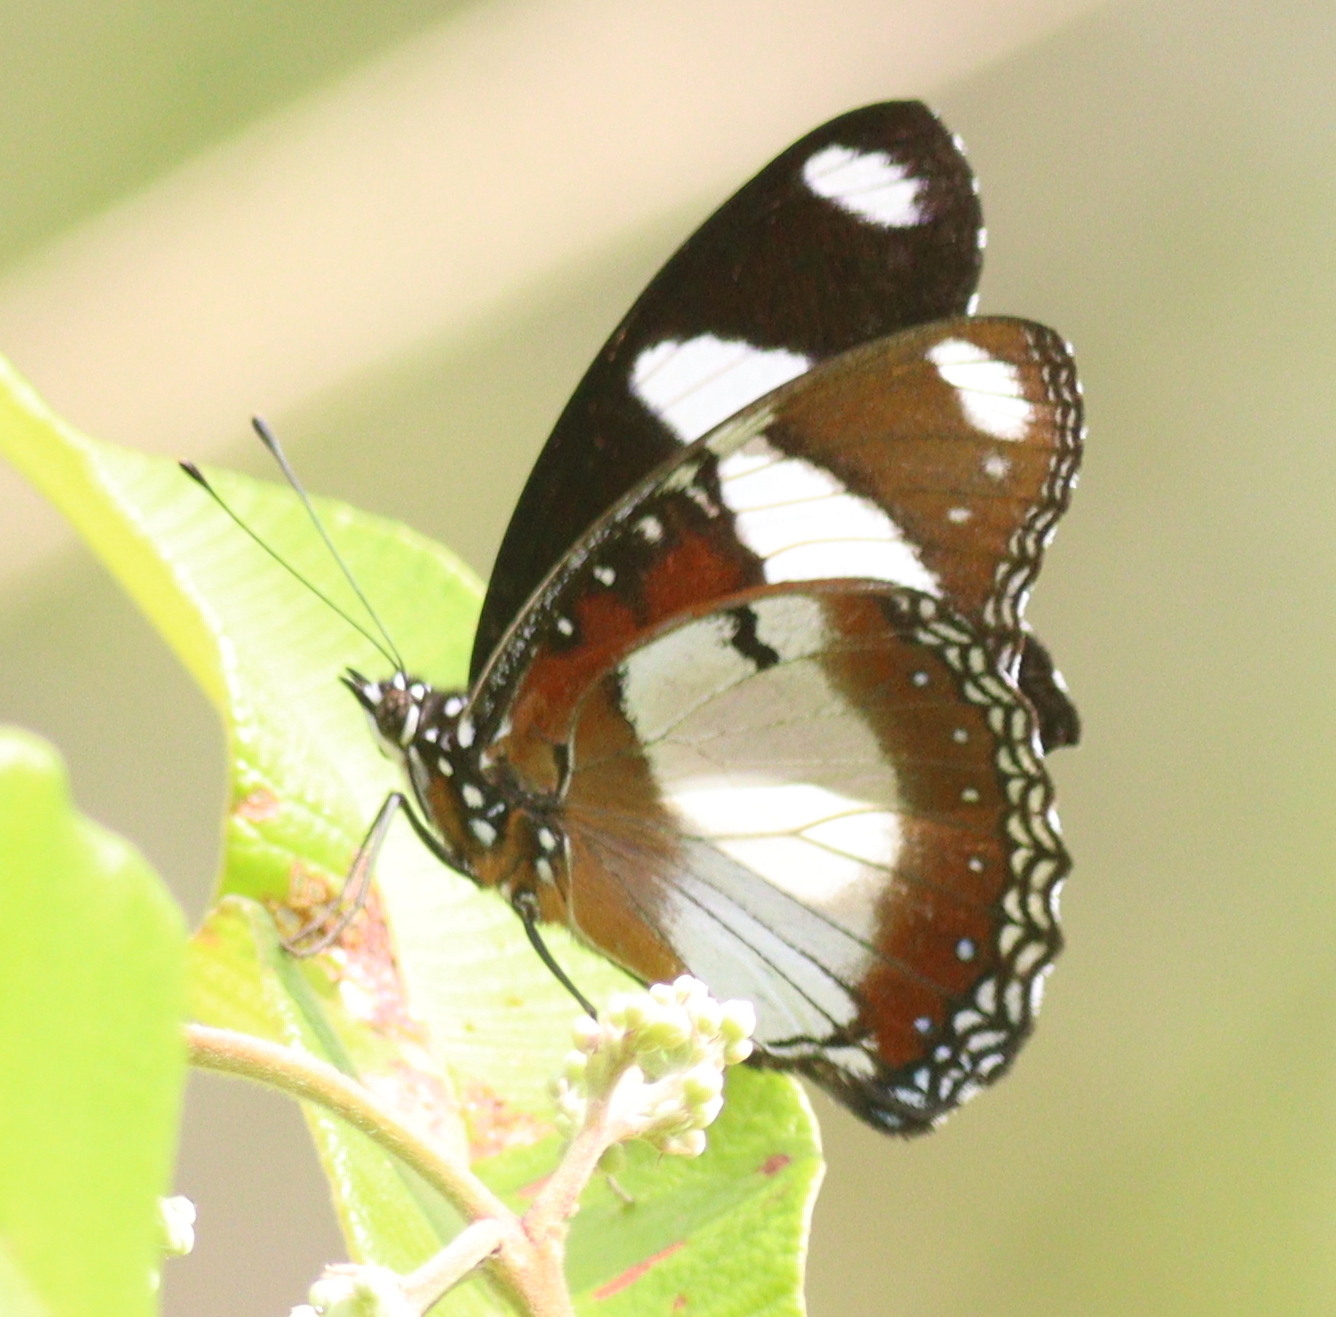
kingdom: Animalia
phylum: Arthropoda
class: Insecta
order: Lepidoptera
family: Nymphalidae
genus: Hypolimnas
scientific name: Hypolimnas misippus
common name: False plain tiger
